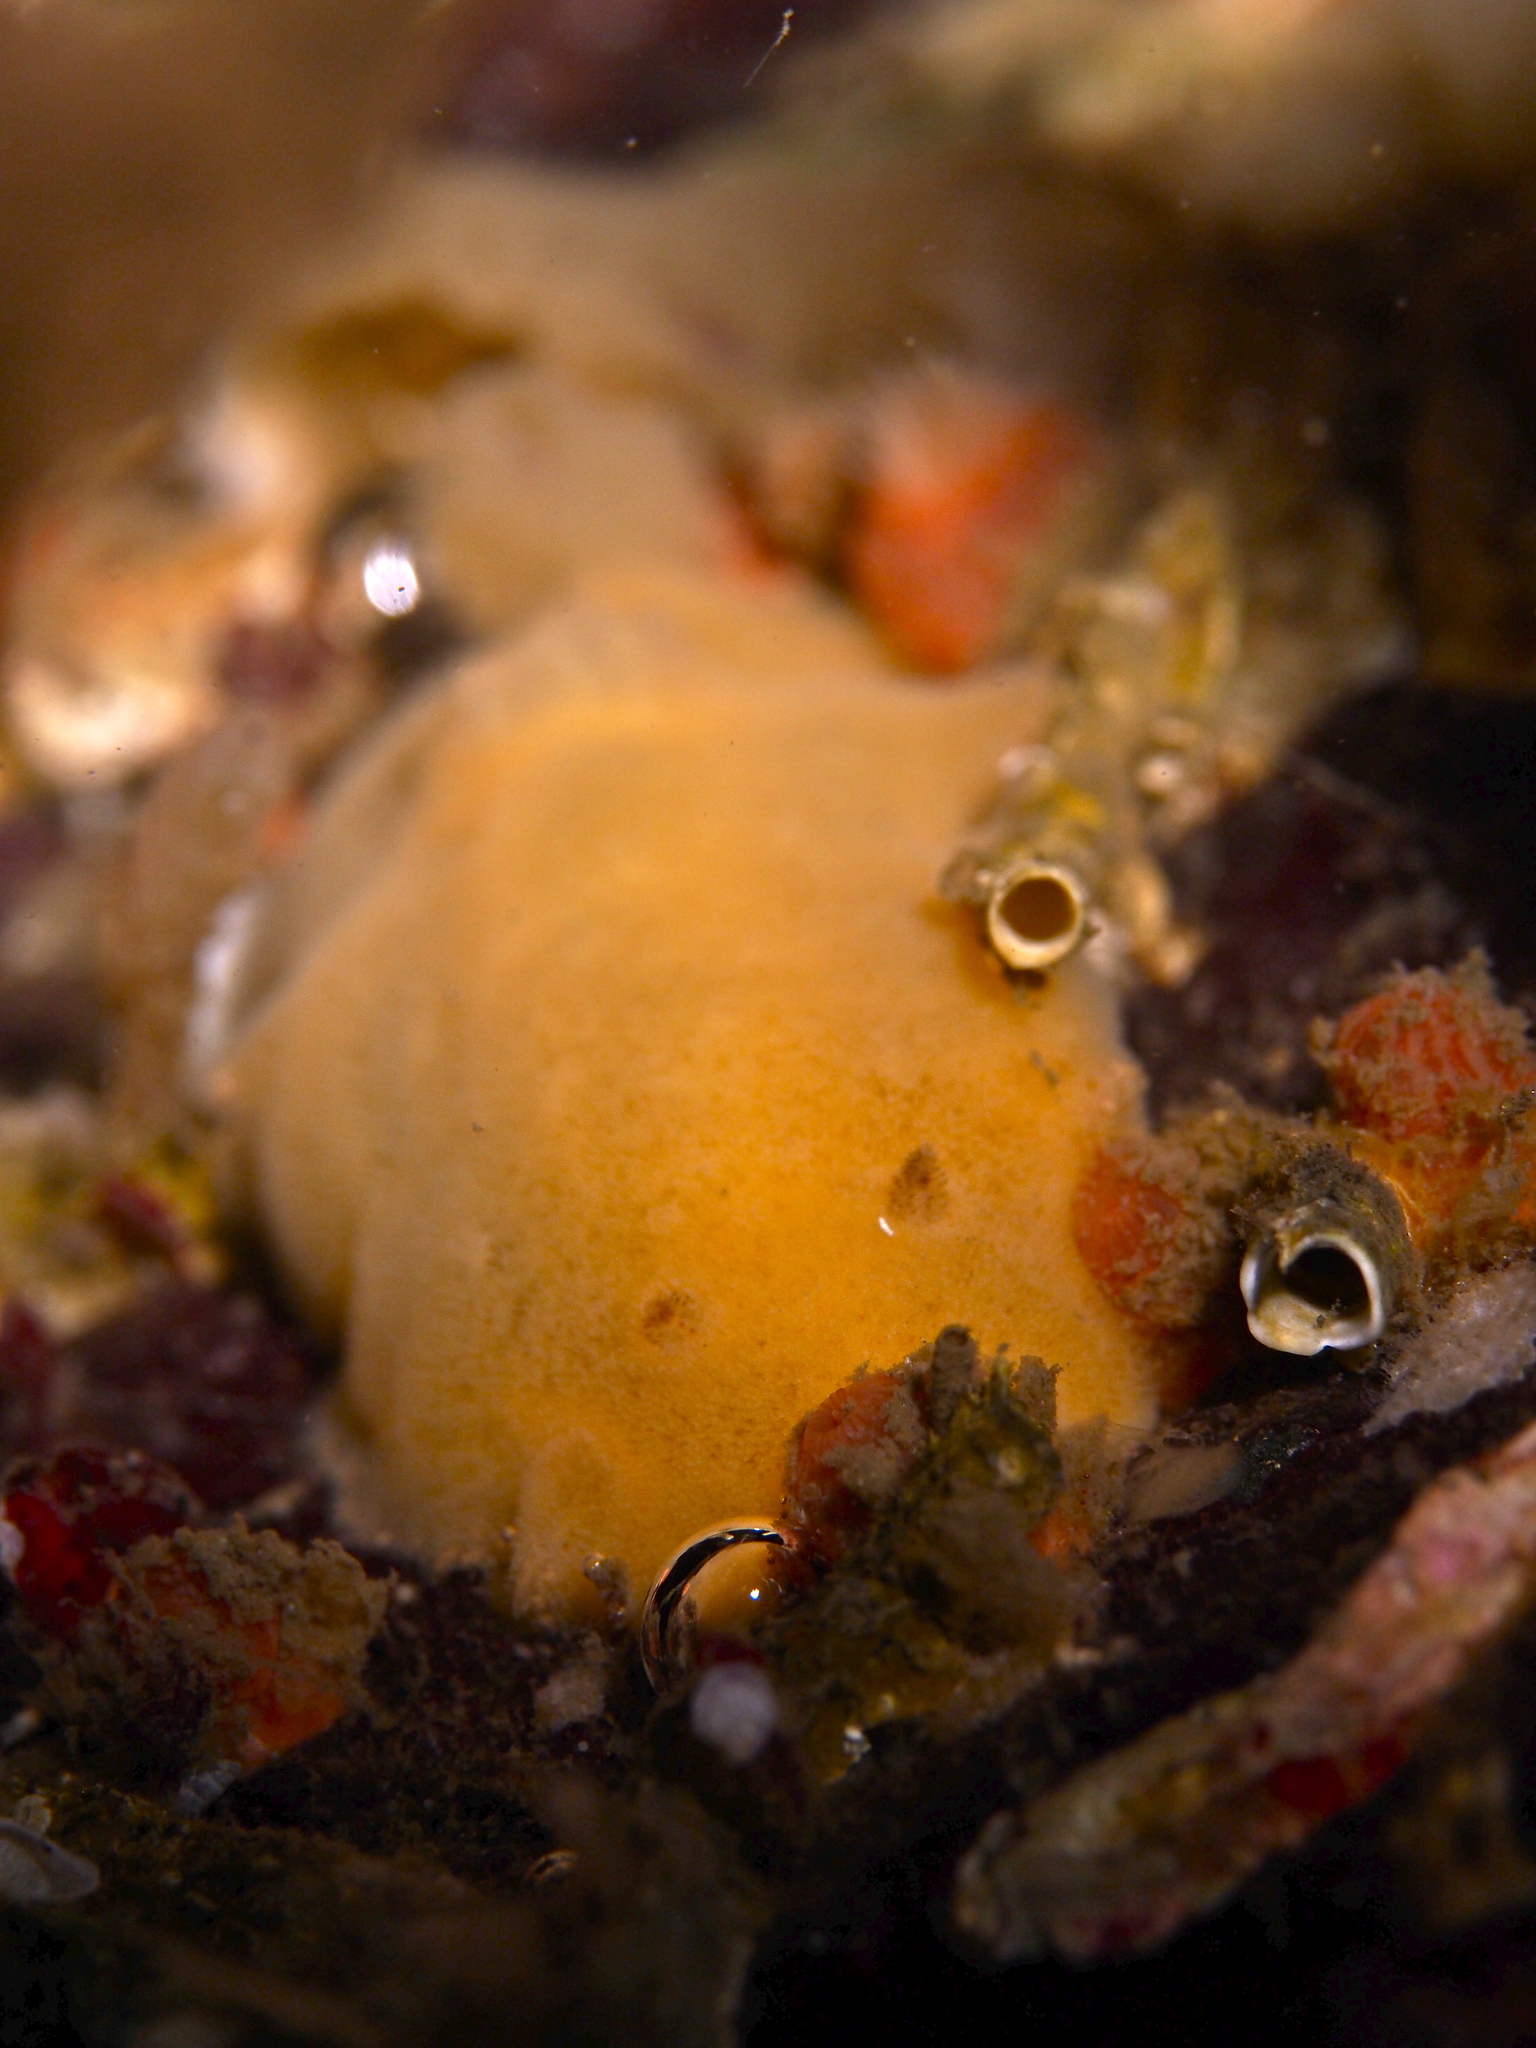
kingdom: Animalia
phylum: Mollusca
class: Gastropoda
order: Nudibranchia
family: Discodorididae
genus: Jorunna
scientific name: Jorunna tomentosa
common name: Grey sea slug
